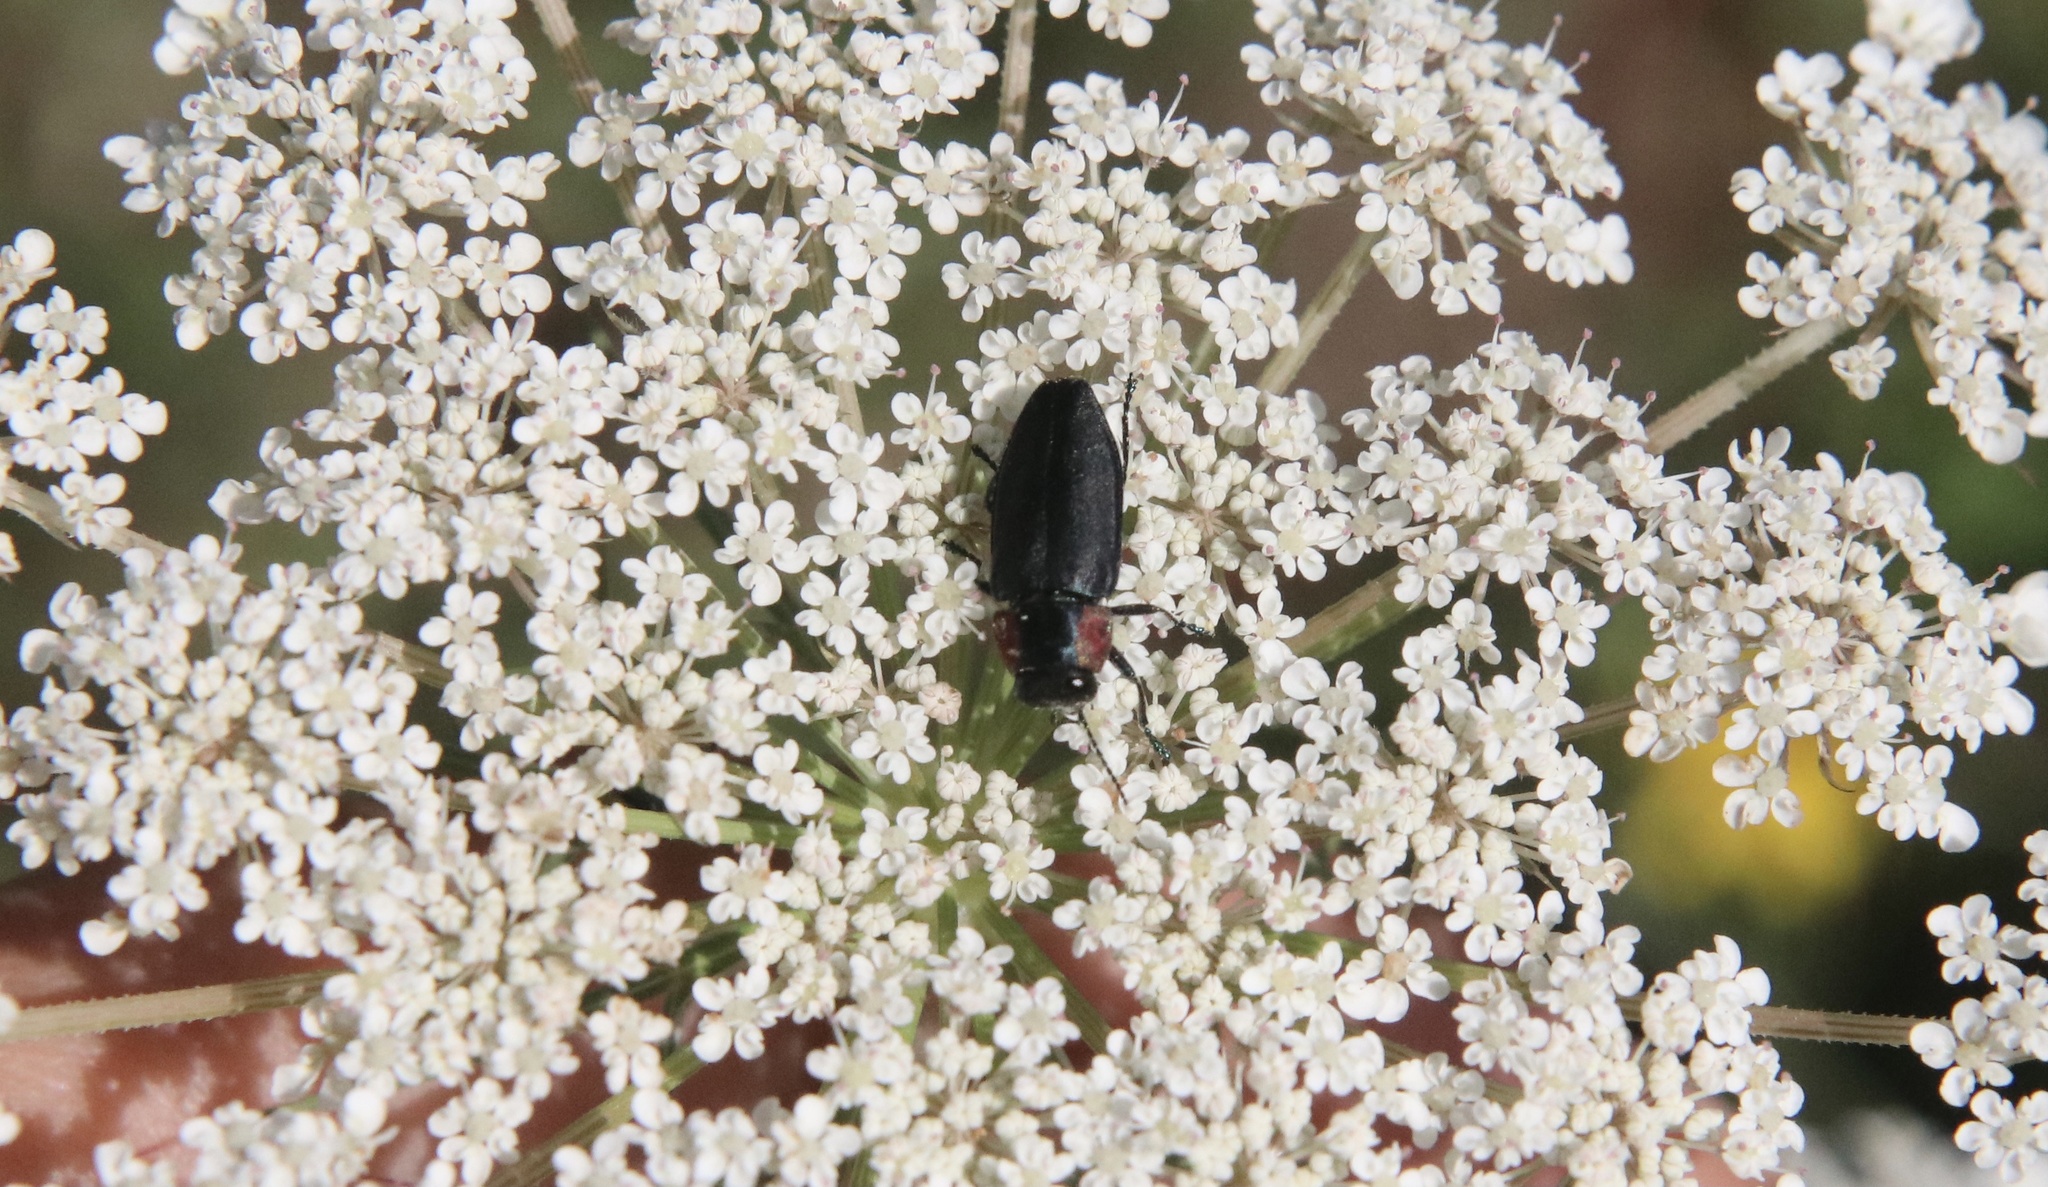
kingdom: Animalia
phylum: Arthropoda
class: Insecta
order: Coleoptera
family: Buprestidae
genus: Romanophora
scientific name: Romanophora verecunda
